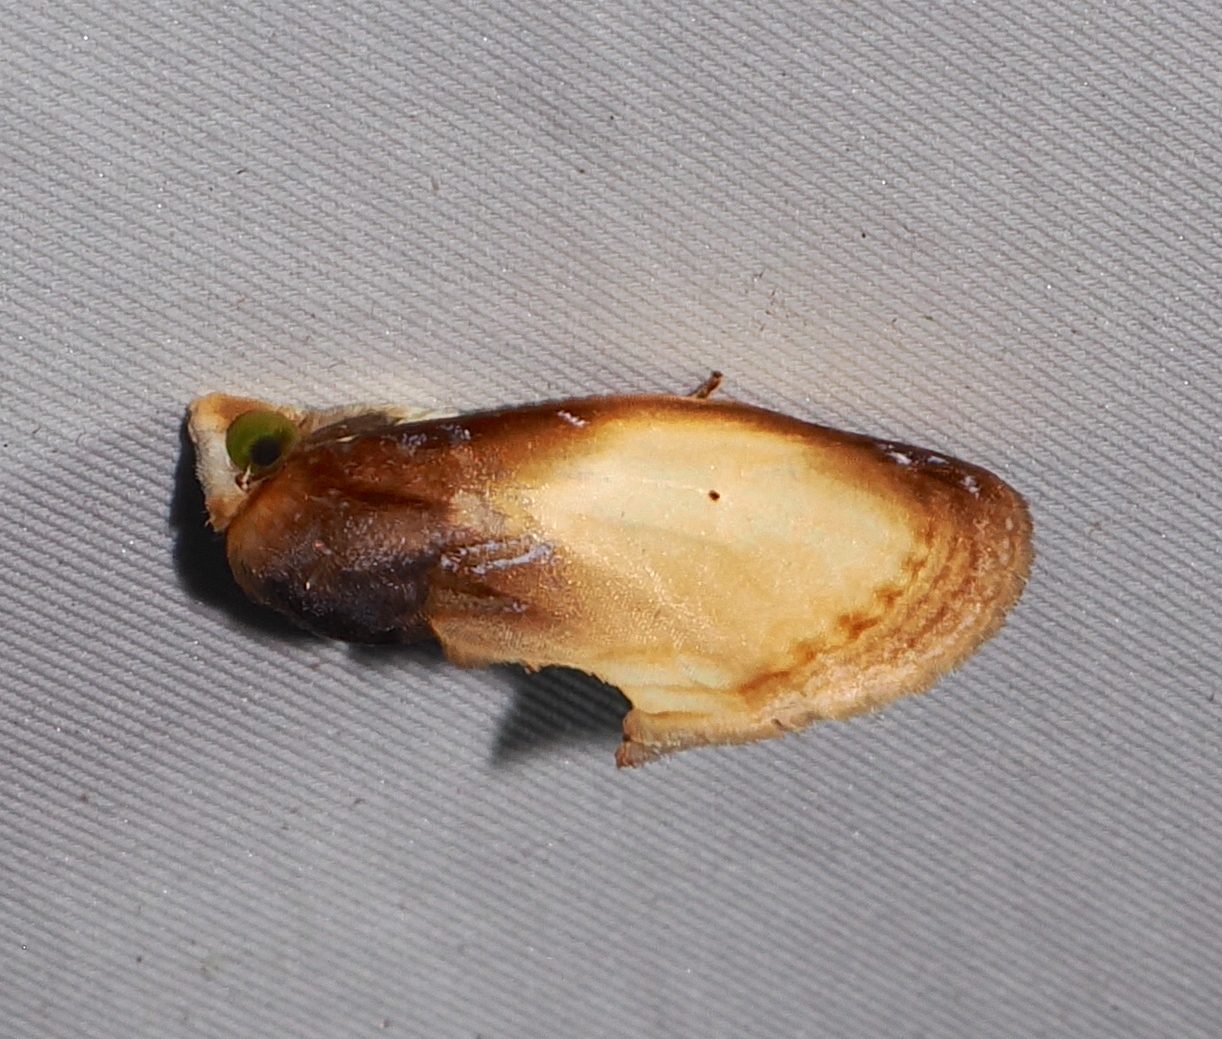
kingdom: Animalia
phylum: Arthropoda
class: Insecta
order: Lepidoptera
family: Erebidae
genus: Gonodonta
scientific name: Gonodonta primulina
